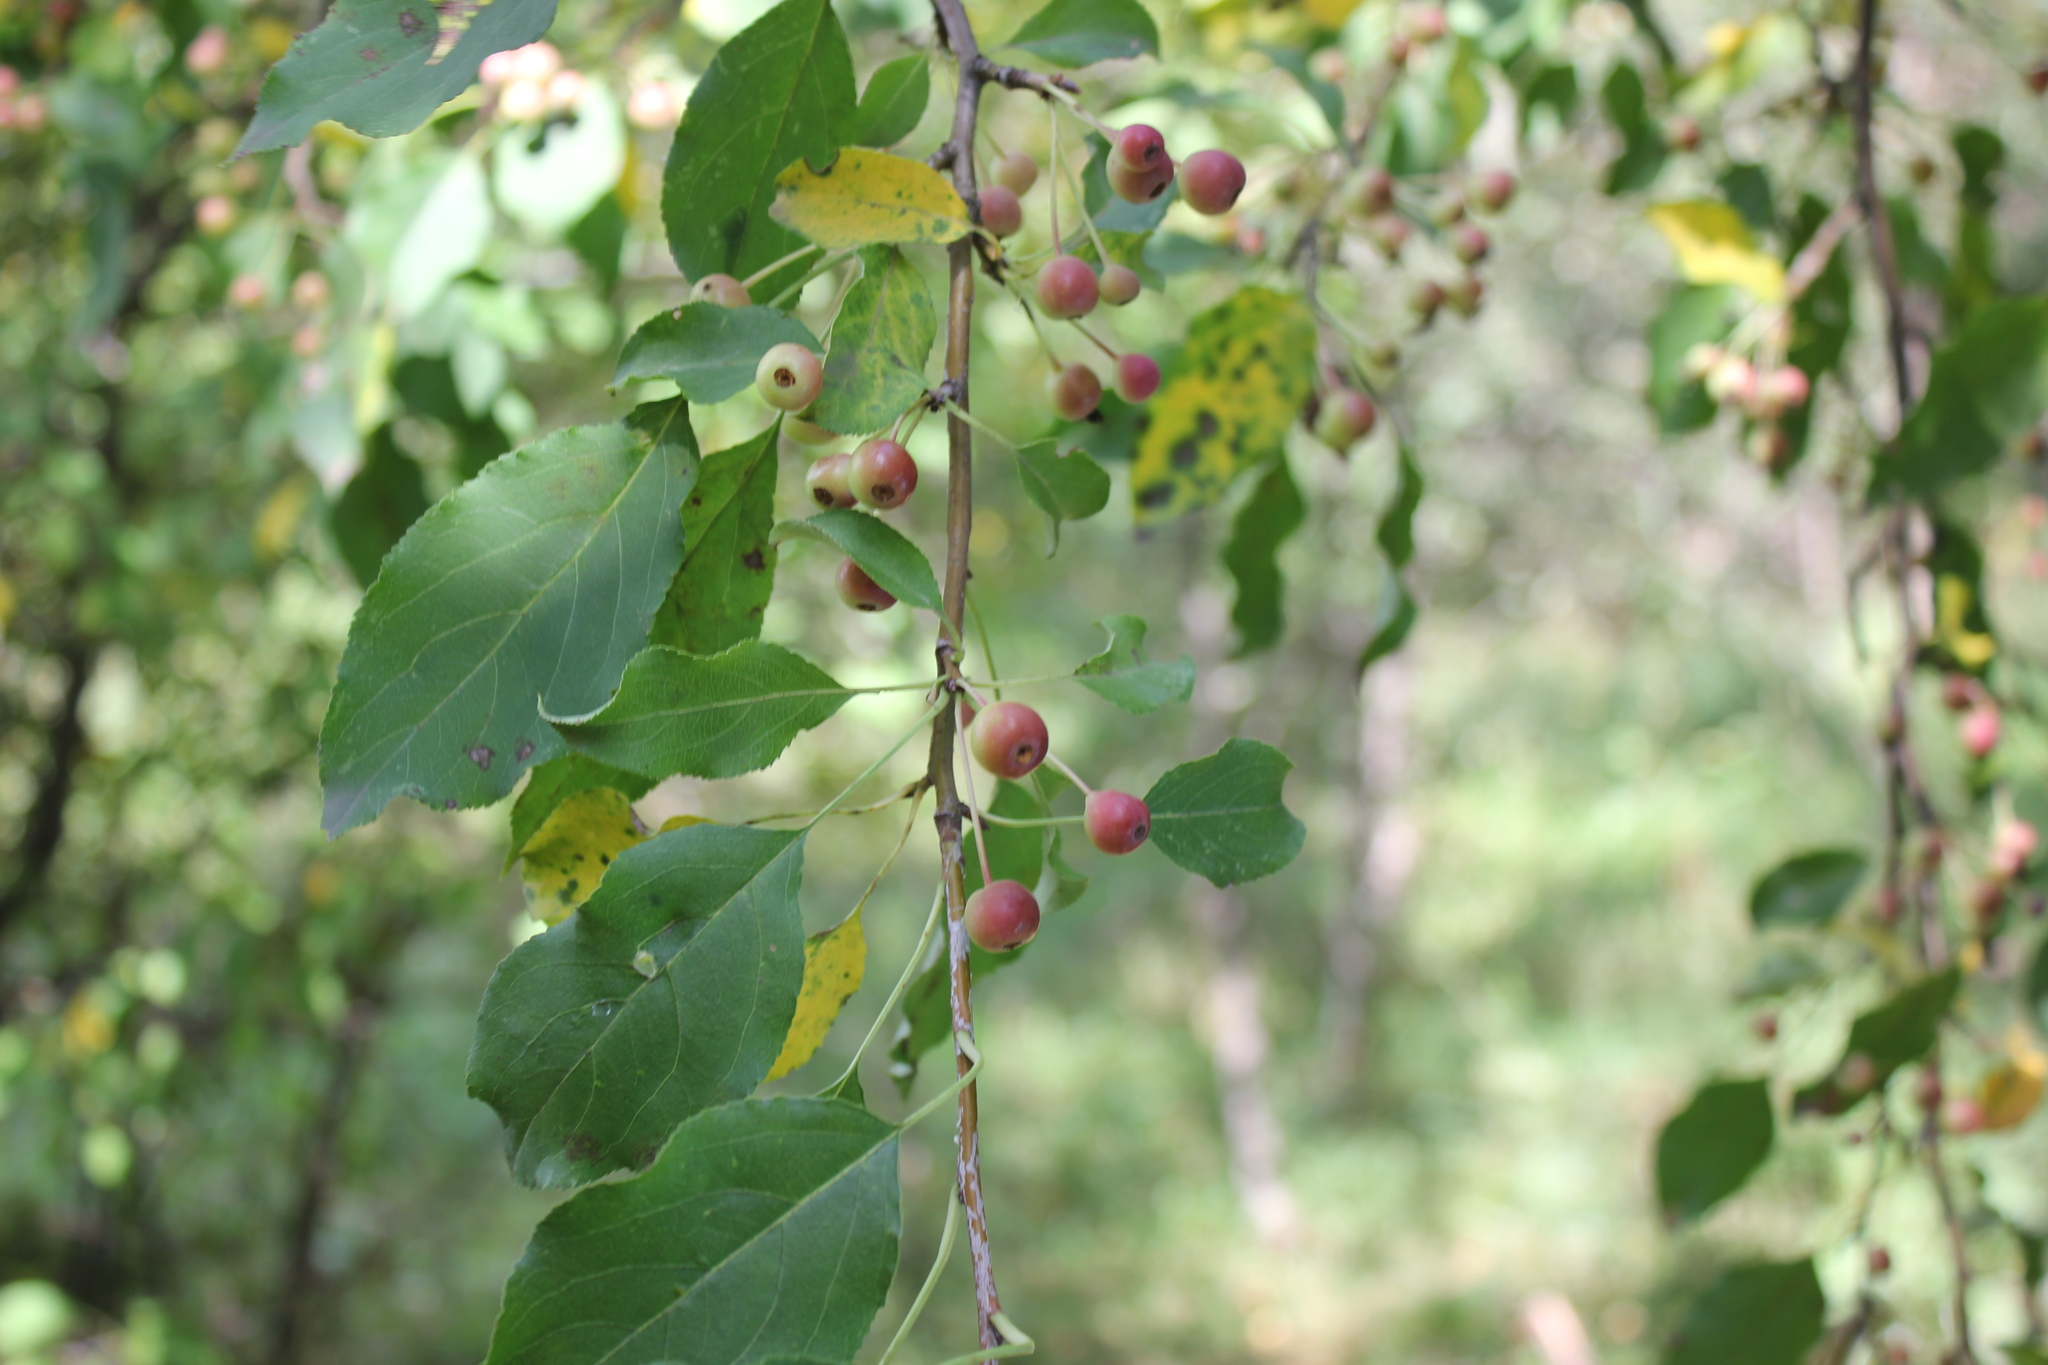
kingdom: Plantae
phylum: Tracheophyta
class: Magnoliopsida
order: Rosales
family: Rosaceae
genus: Malus
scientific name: Malus baccata
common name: Siberian crab
